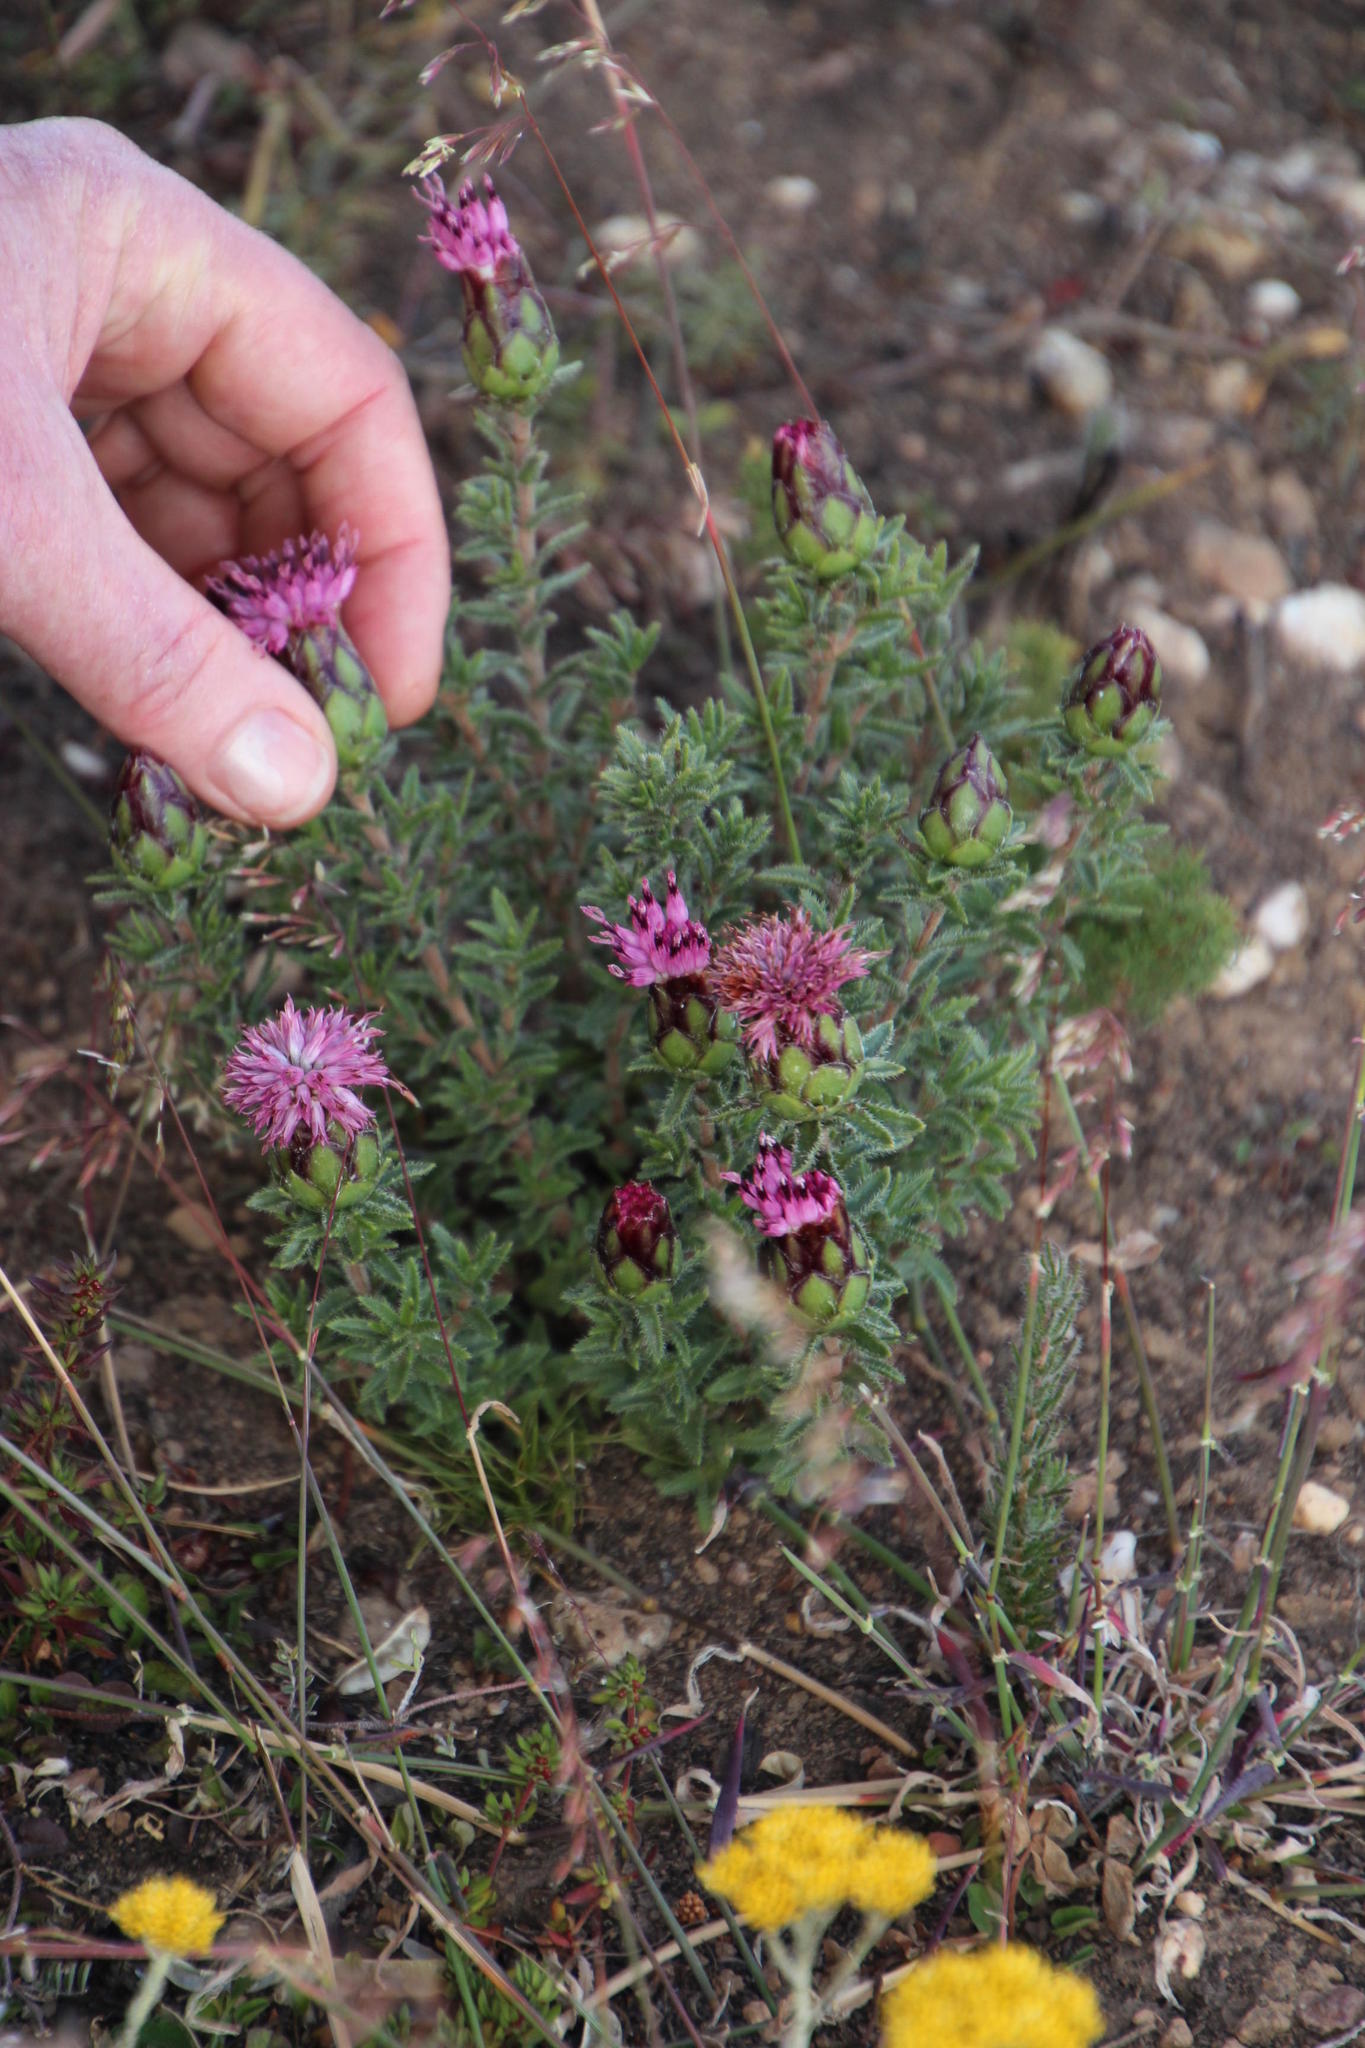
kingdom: Plantae
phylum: Tracheophyta
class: Magnoliopsida
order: Asterales
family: Asteraceae
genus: Pteronia
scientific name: Pteronia hirsuta
